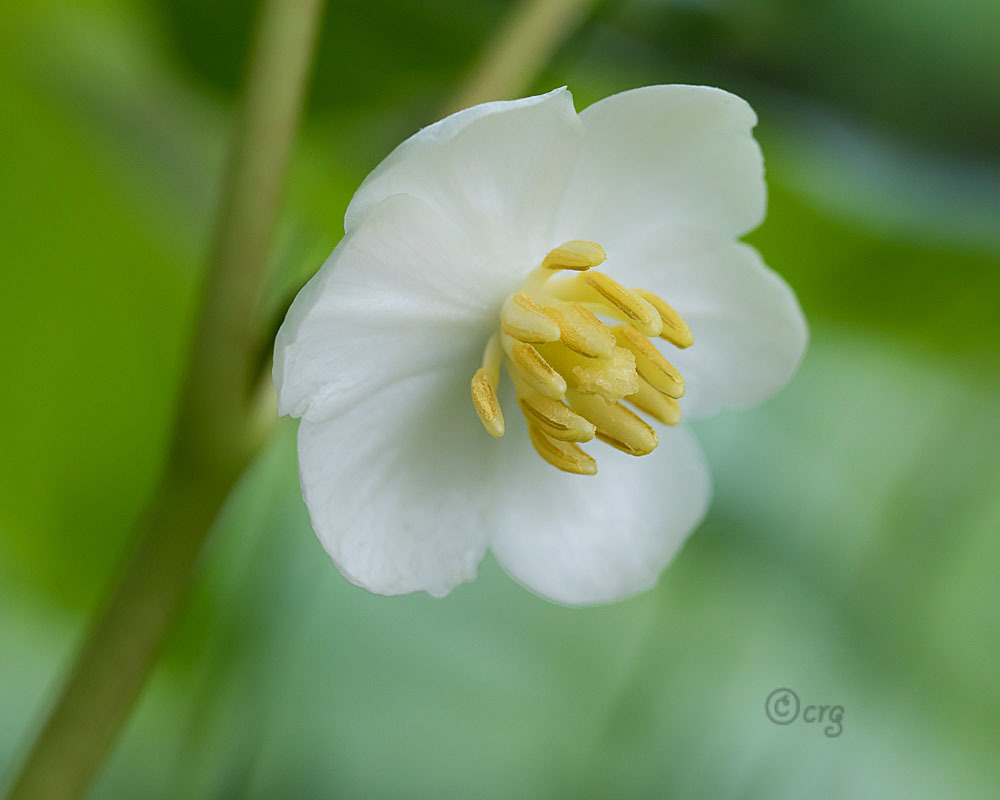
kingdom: Plantae
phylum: Tracheophyta
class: Magnoliopsida
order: Ranunculales
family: Berberidaceae
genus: Podophyllum
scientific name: Podophyllum peltatum
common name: Wild mandrake
